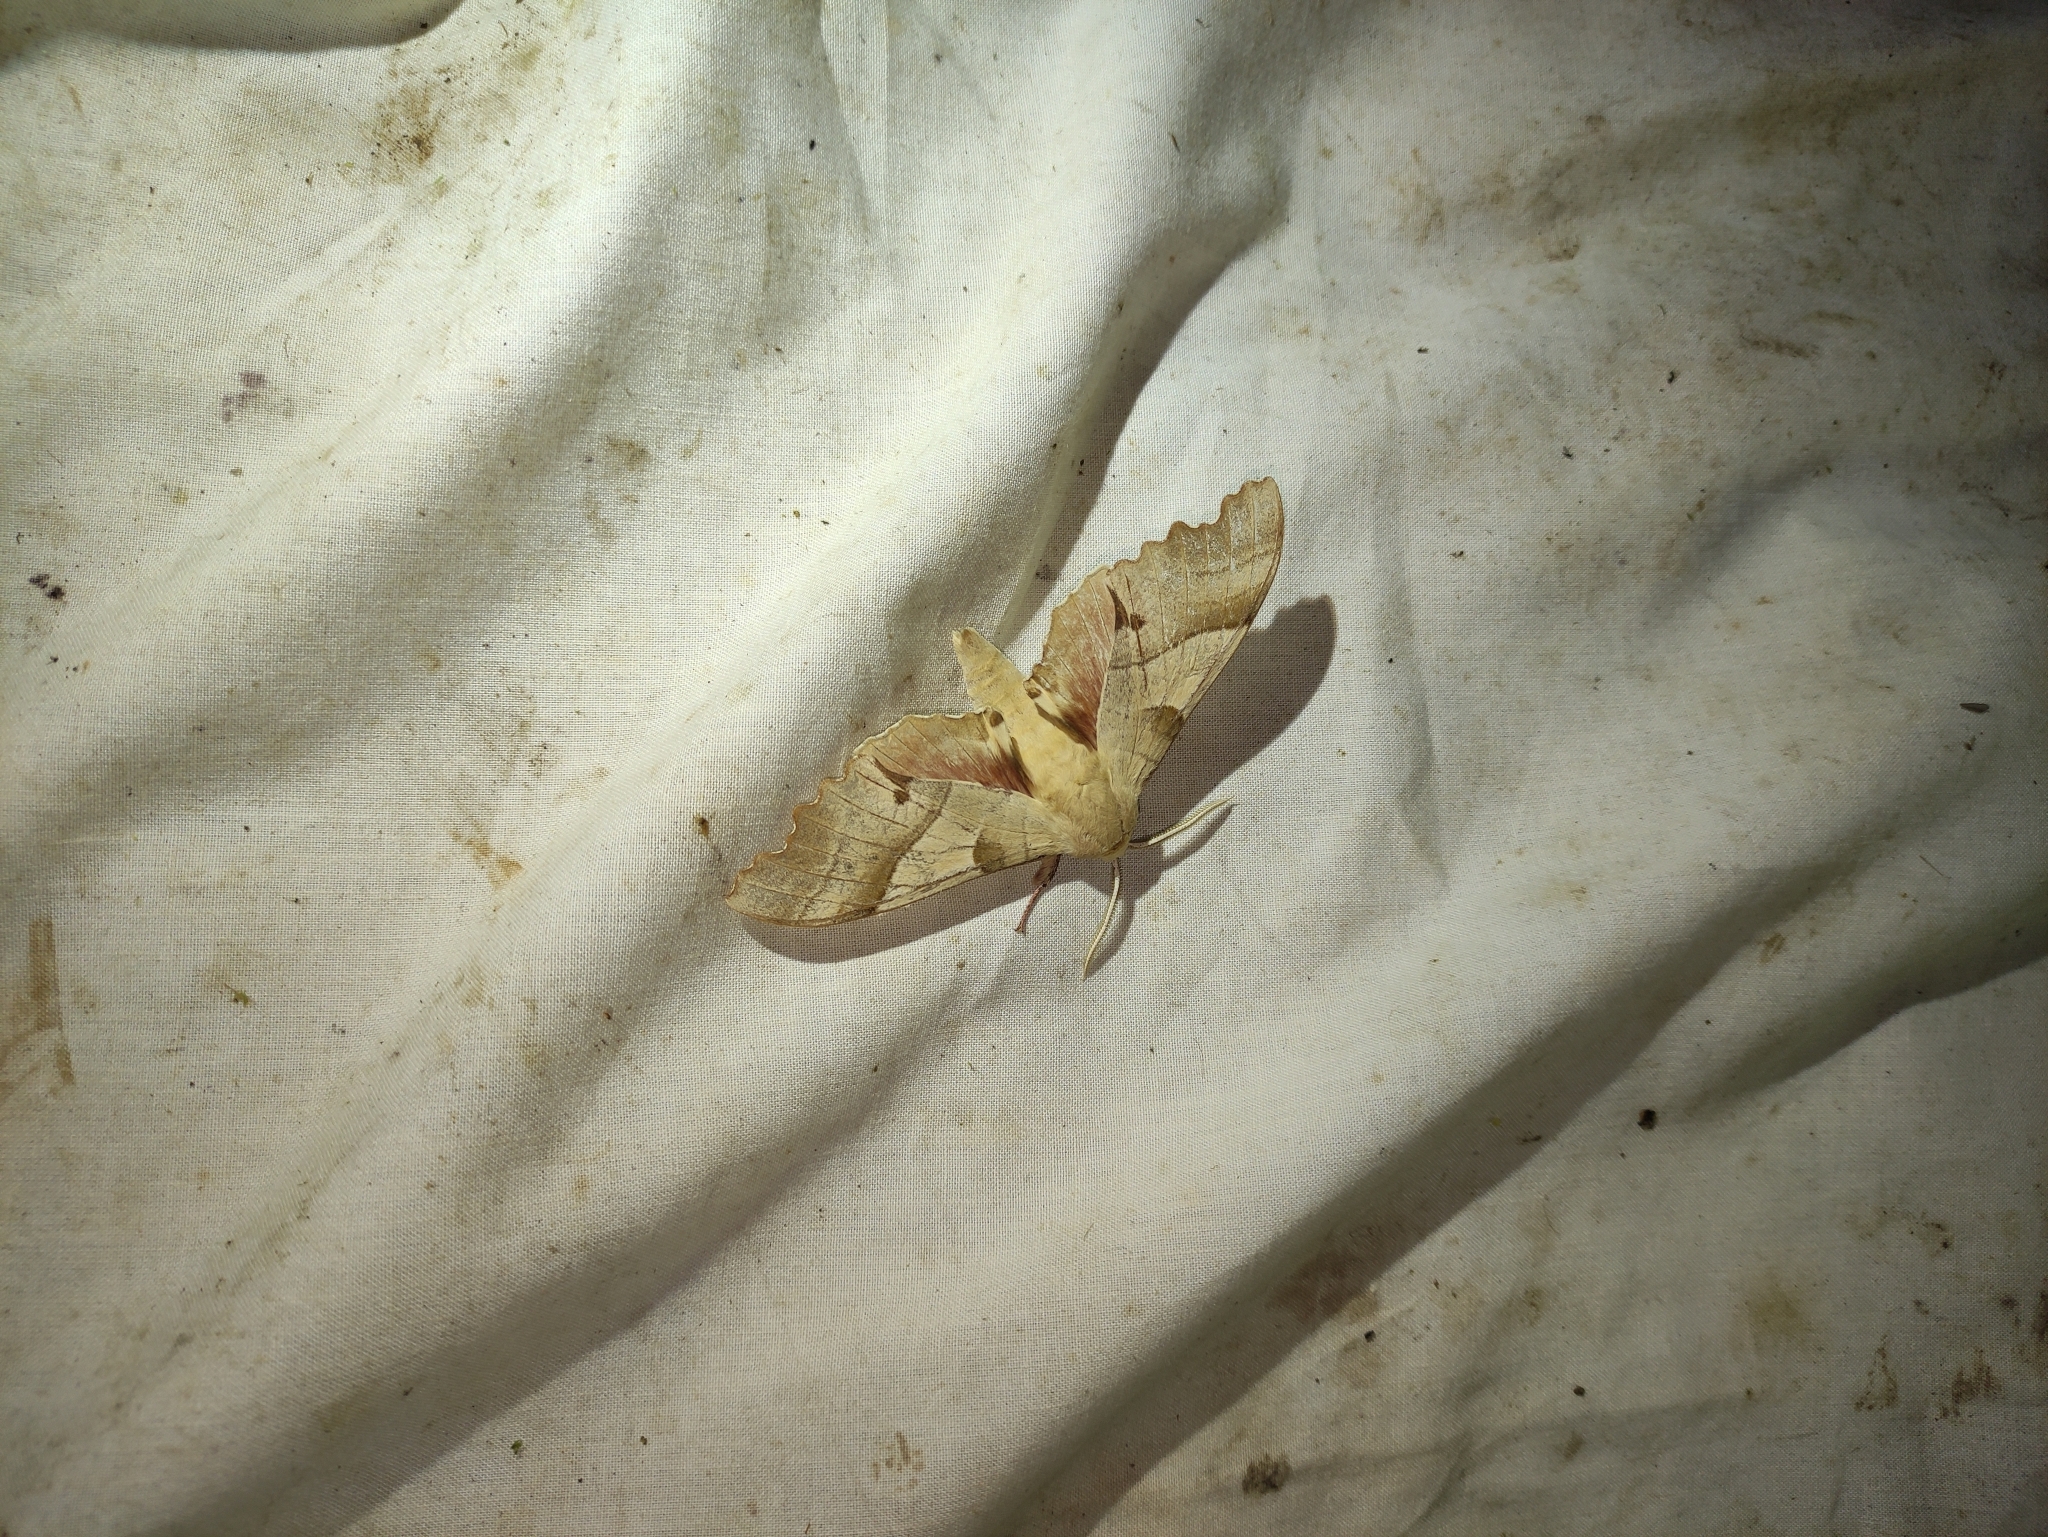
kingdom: Animalia
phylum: Arthropoda
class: Insecta
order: Lepidoptera
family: Sphingidae
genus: Marumba
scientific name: Marumba quercus
